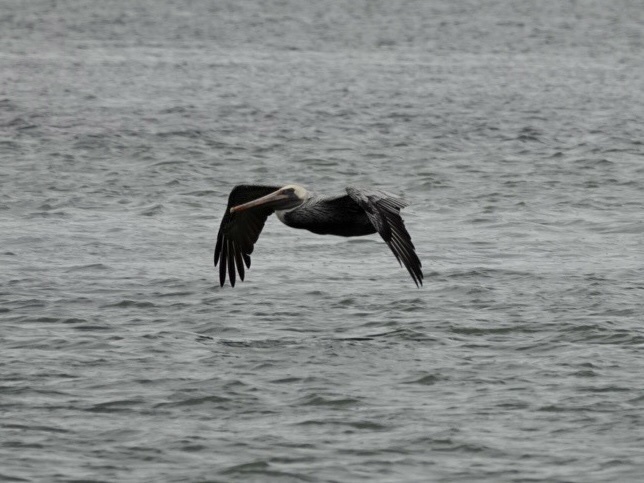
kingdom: Animalia
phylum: Chordata
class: Aves
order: Pelecaniformes
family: Pelecanidae
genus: Pelecanus
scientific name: Pelecanus occidentalis
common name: Brown pelican
